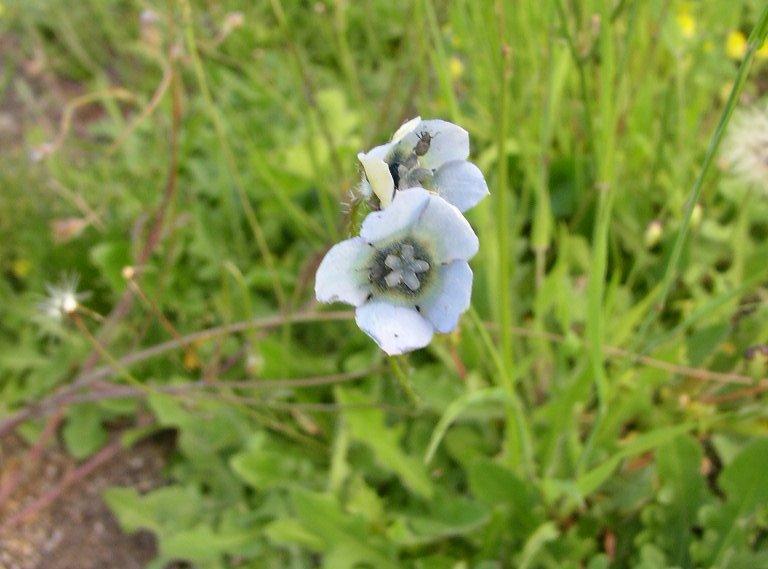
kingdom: Plantae
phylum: Tracheophyta
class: Magnoliopsida
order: Asterales
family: Campanulaceae
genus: Wahlenbergia
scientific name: Wahlenbergia capensis
